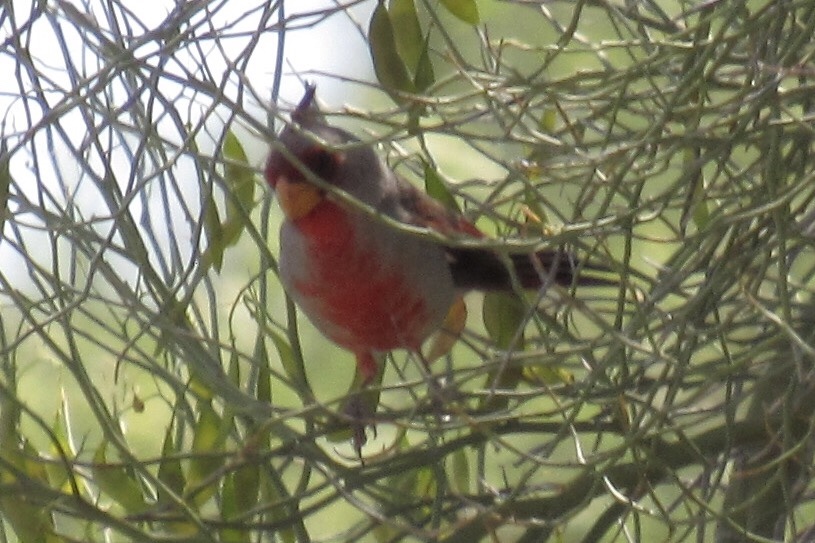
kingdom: Animalia
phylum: Chordata
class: Aves
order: Passeriformes
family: Cardinalidae
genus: Cardinalis
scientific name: Cardinalis sinuatus
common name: Pyrrhuloxia
